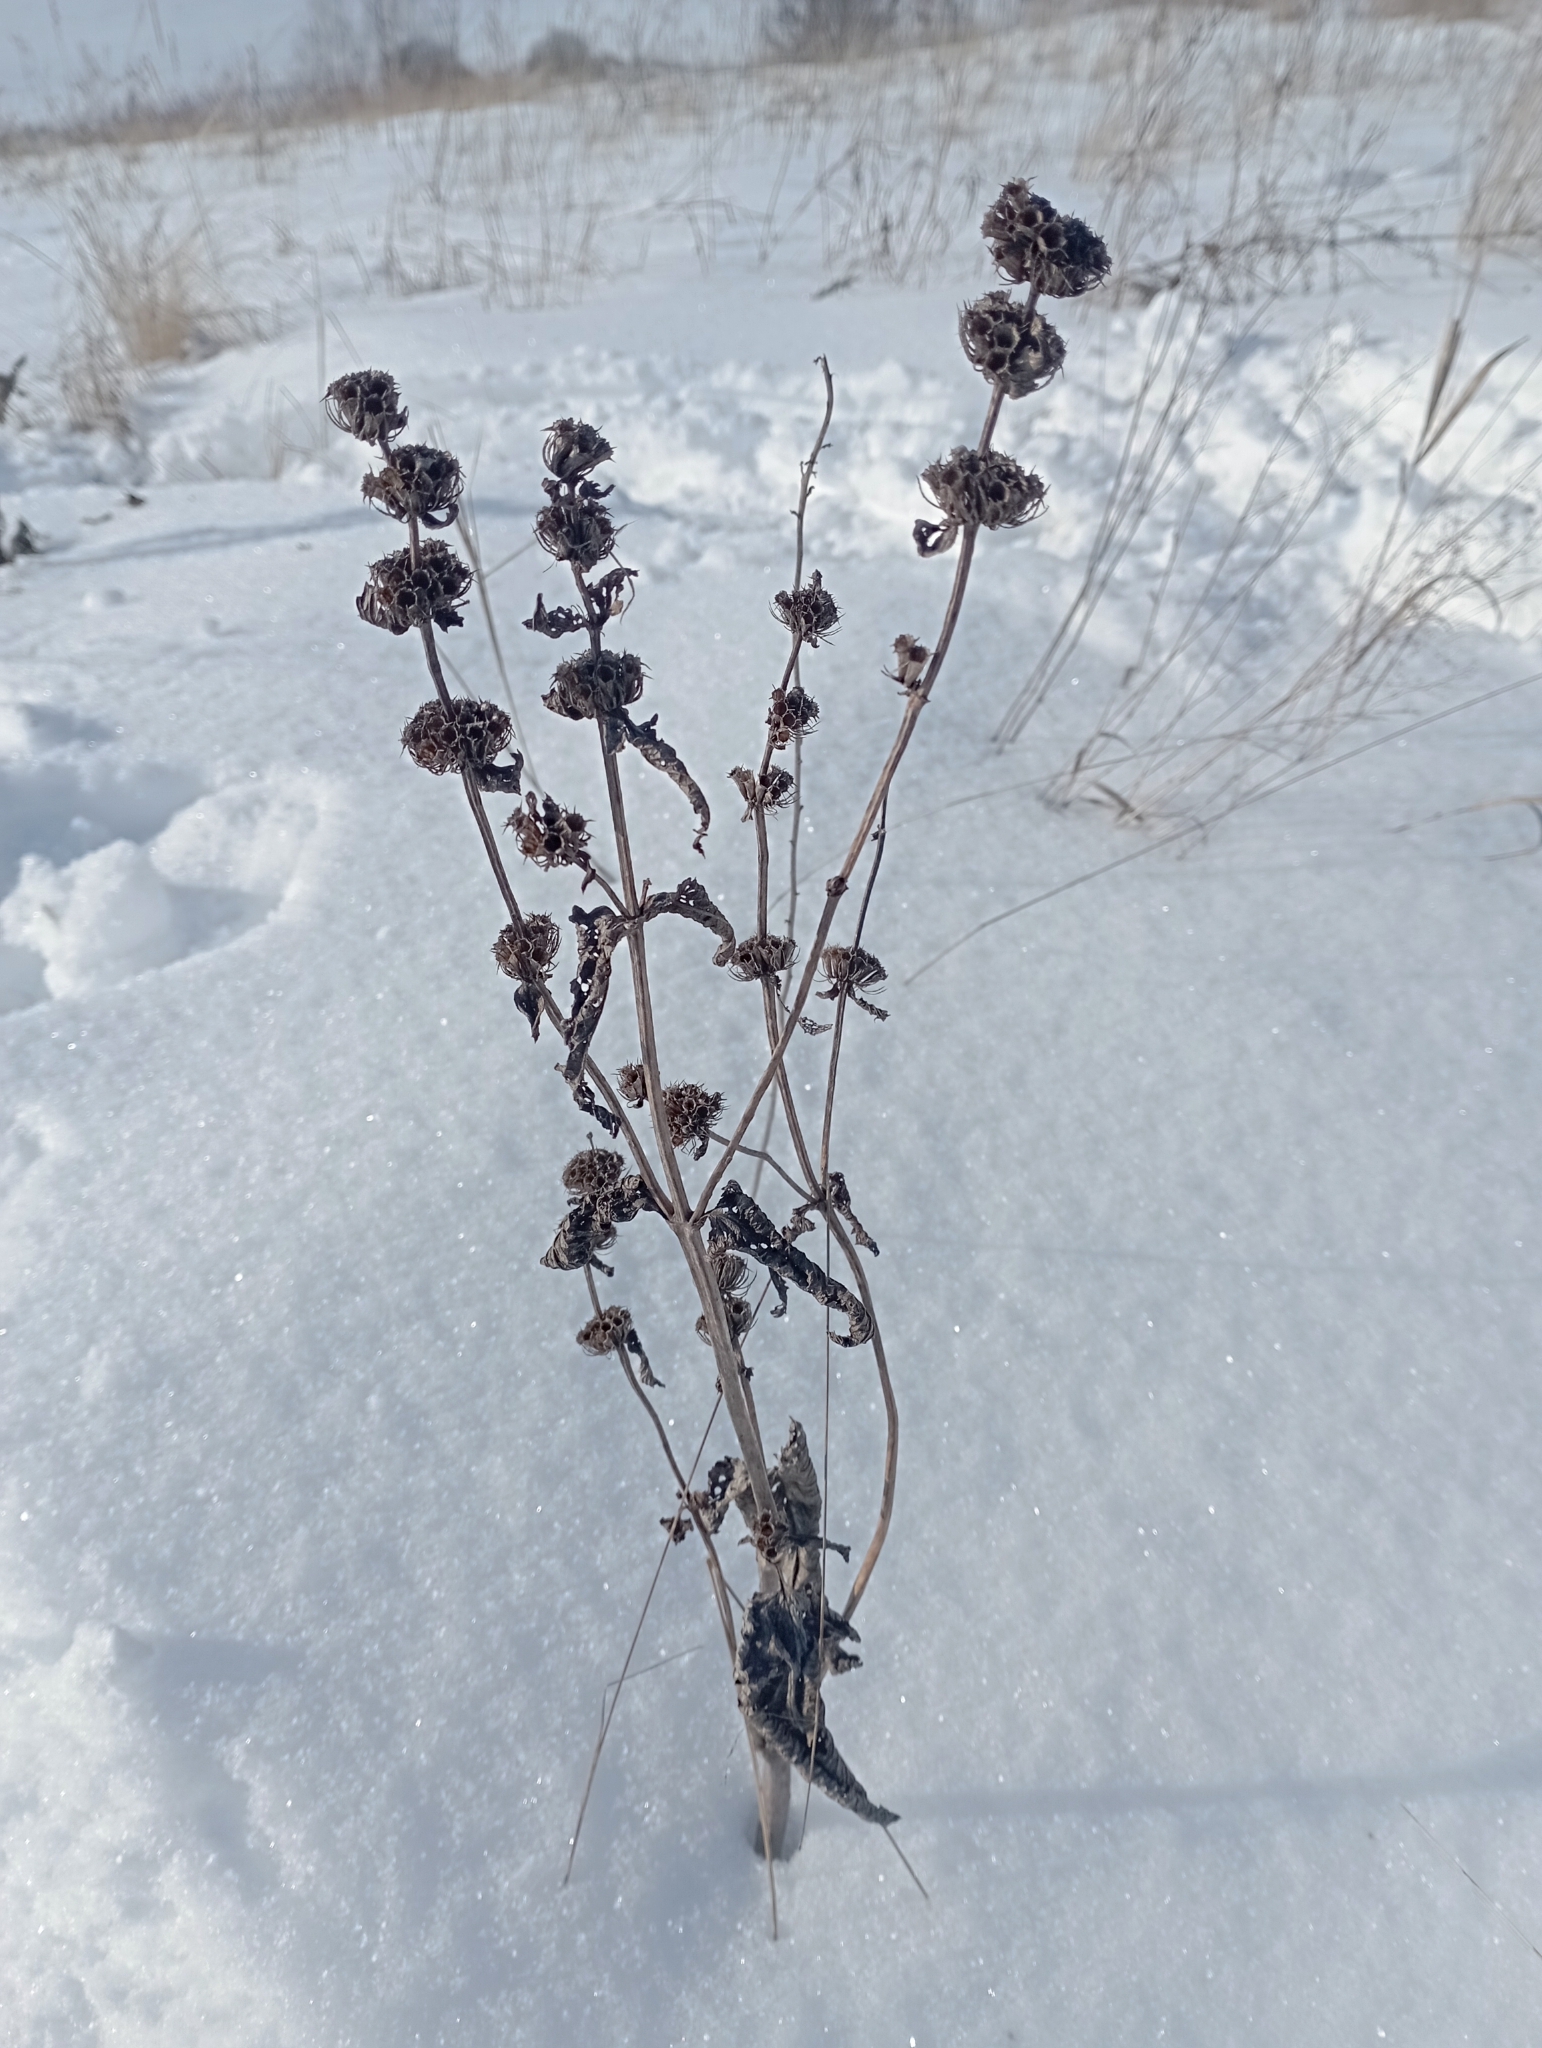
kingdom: Plantae
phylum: Tracheophyta
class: Magnoliopsida
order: Lamiales
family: Lamiaceae
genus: Phlomoides
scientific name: Phlomoides tuberosa
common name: Tuberous jerusalem sage
